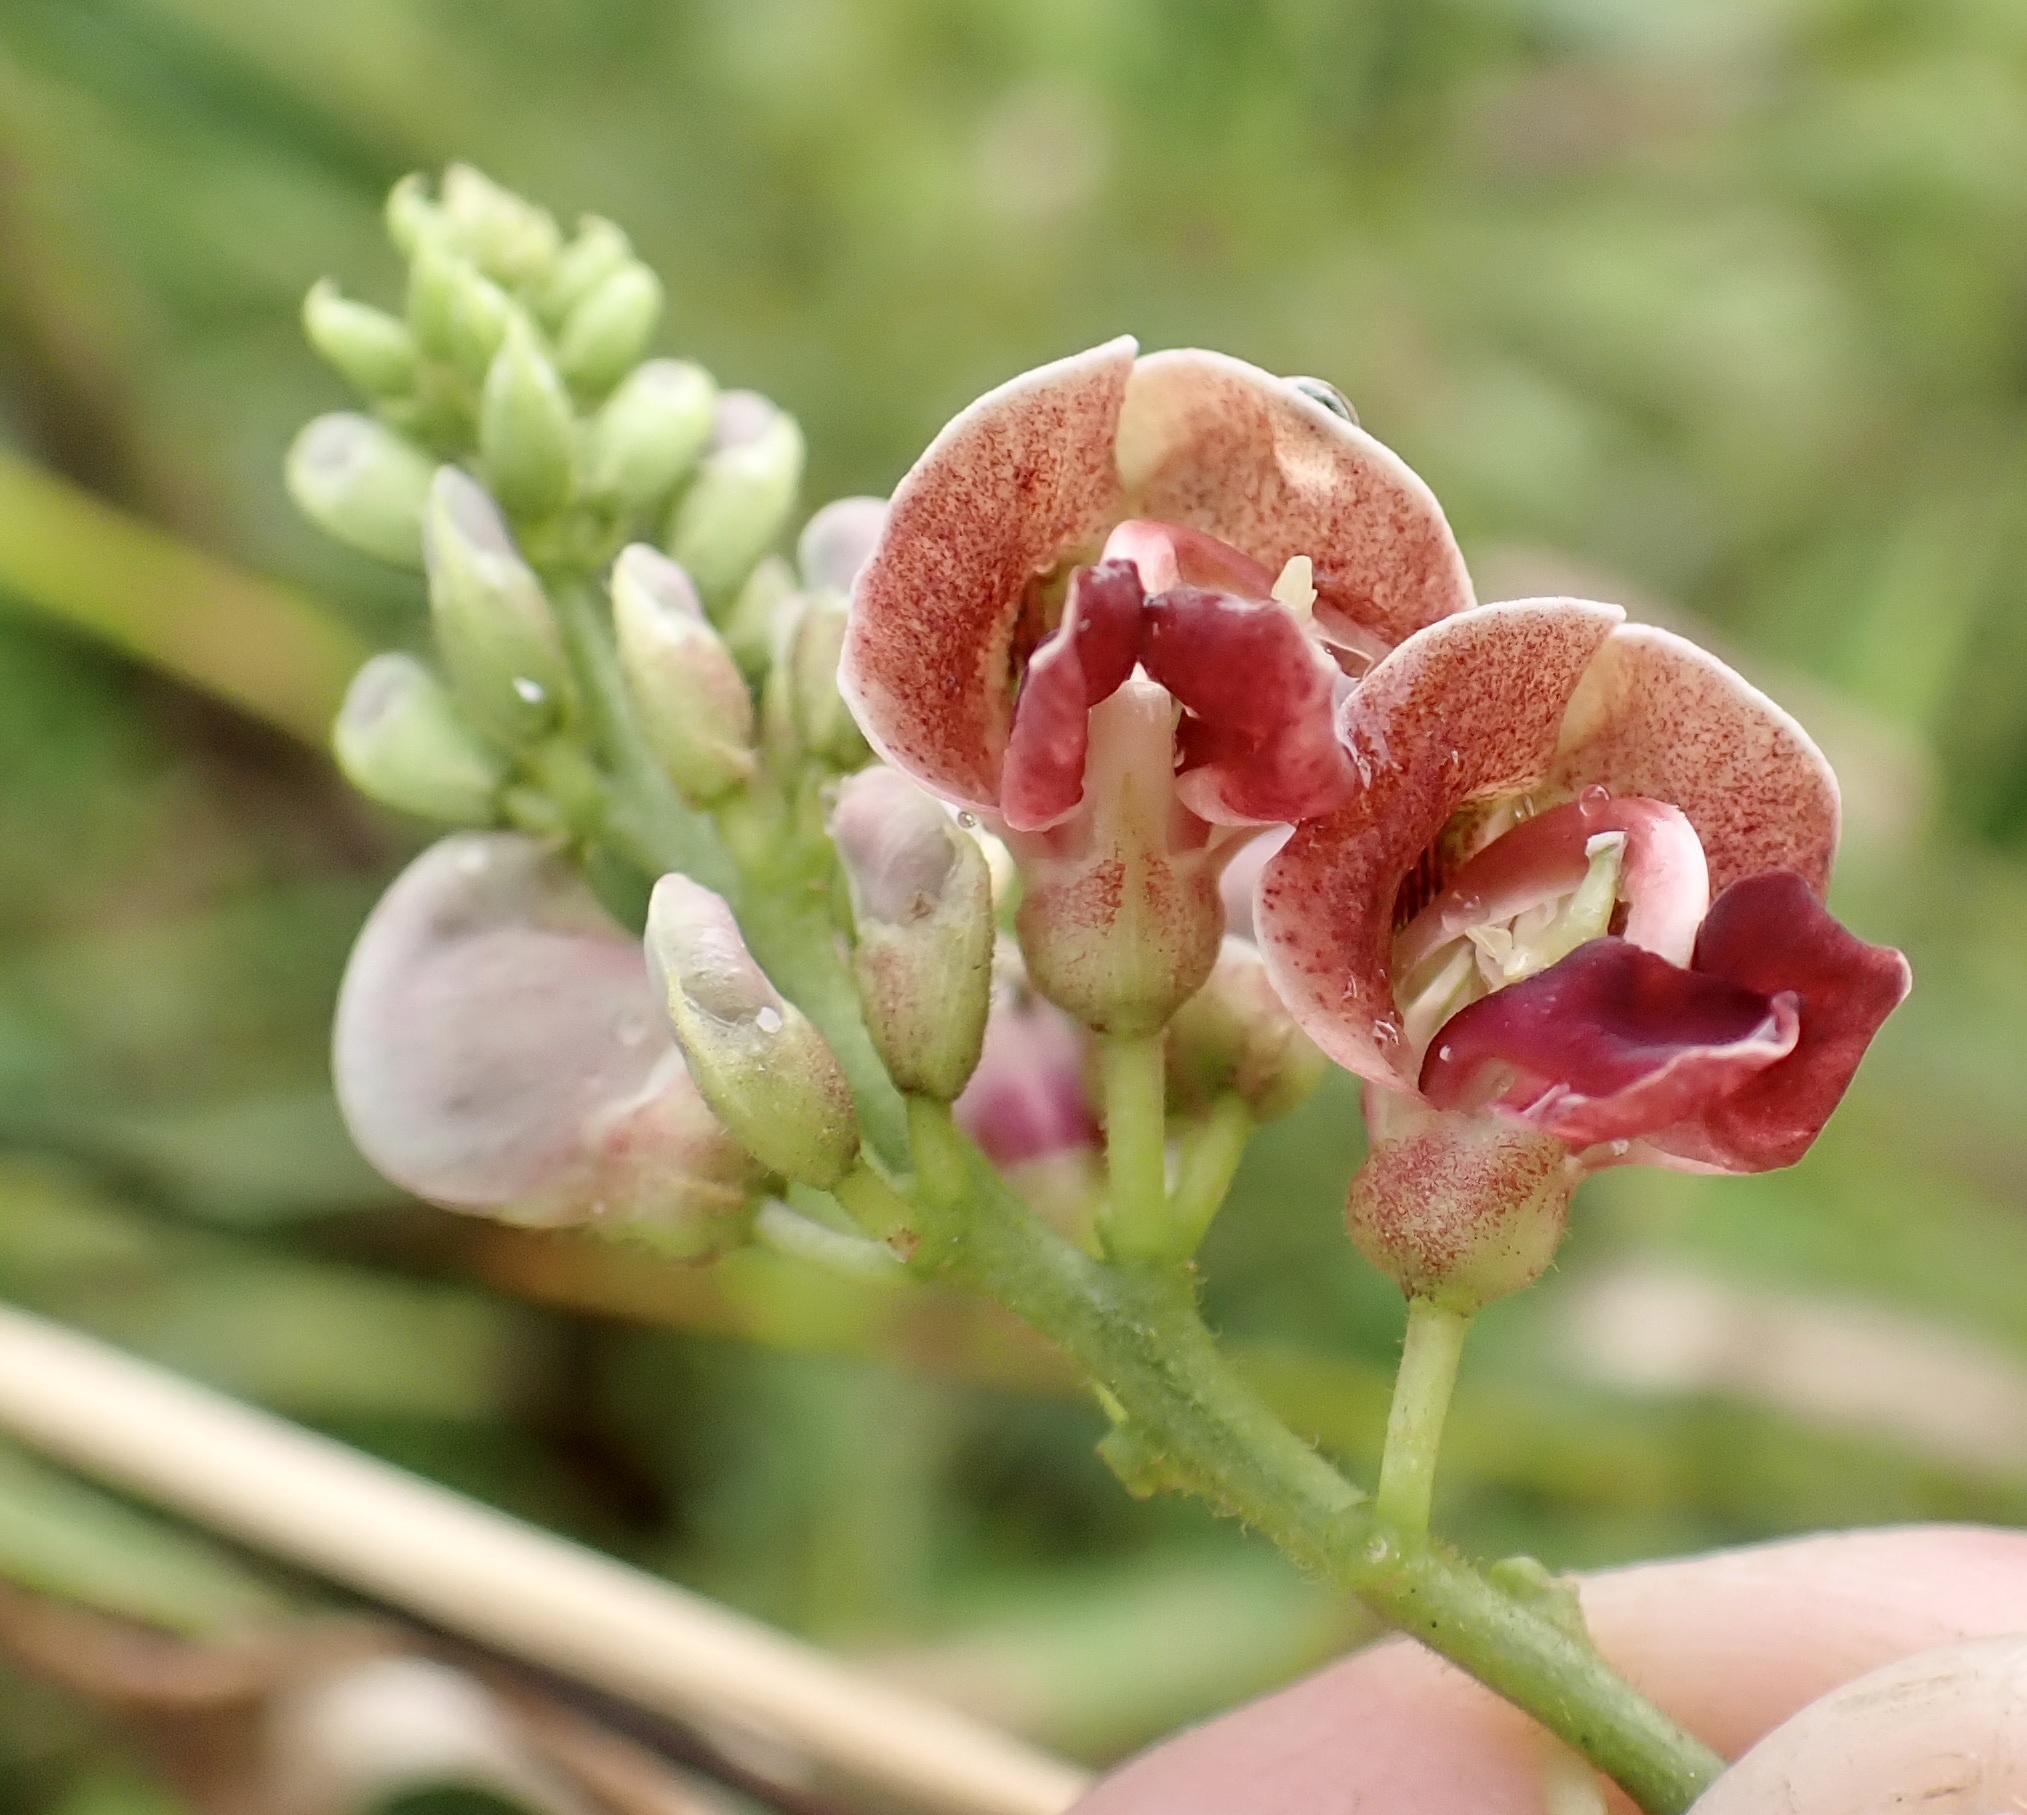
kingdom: Plantae
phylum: Tracheophyta
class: Magnoliopsida
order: Fabales
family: Fabaceae
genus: Apios
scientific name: Apios americana
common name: American potato-bean
